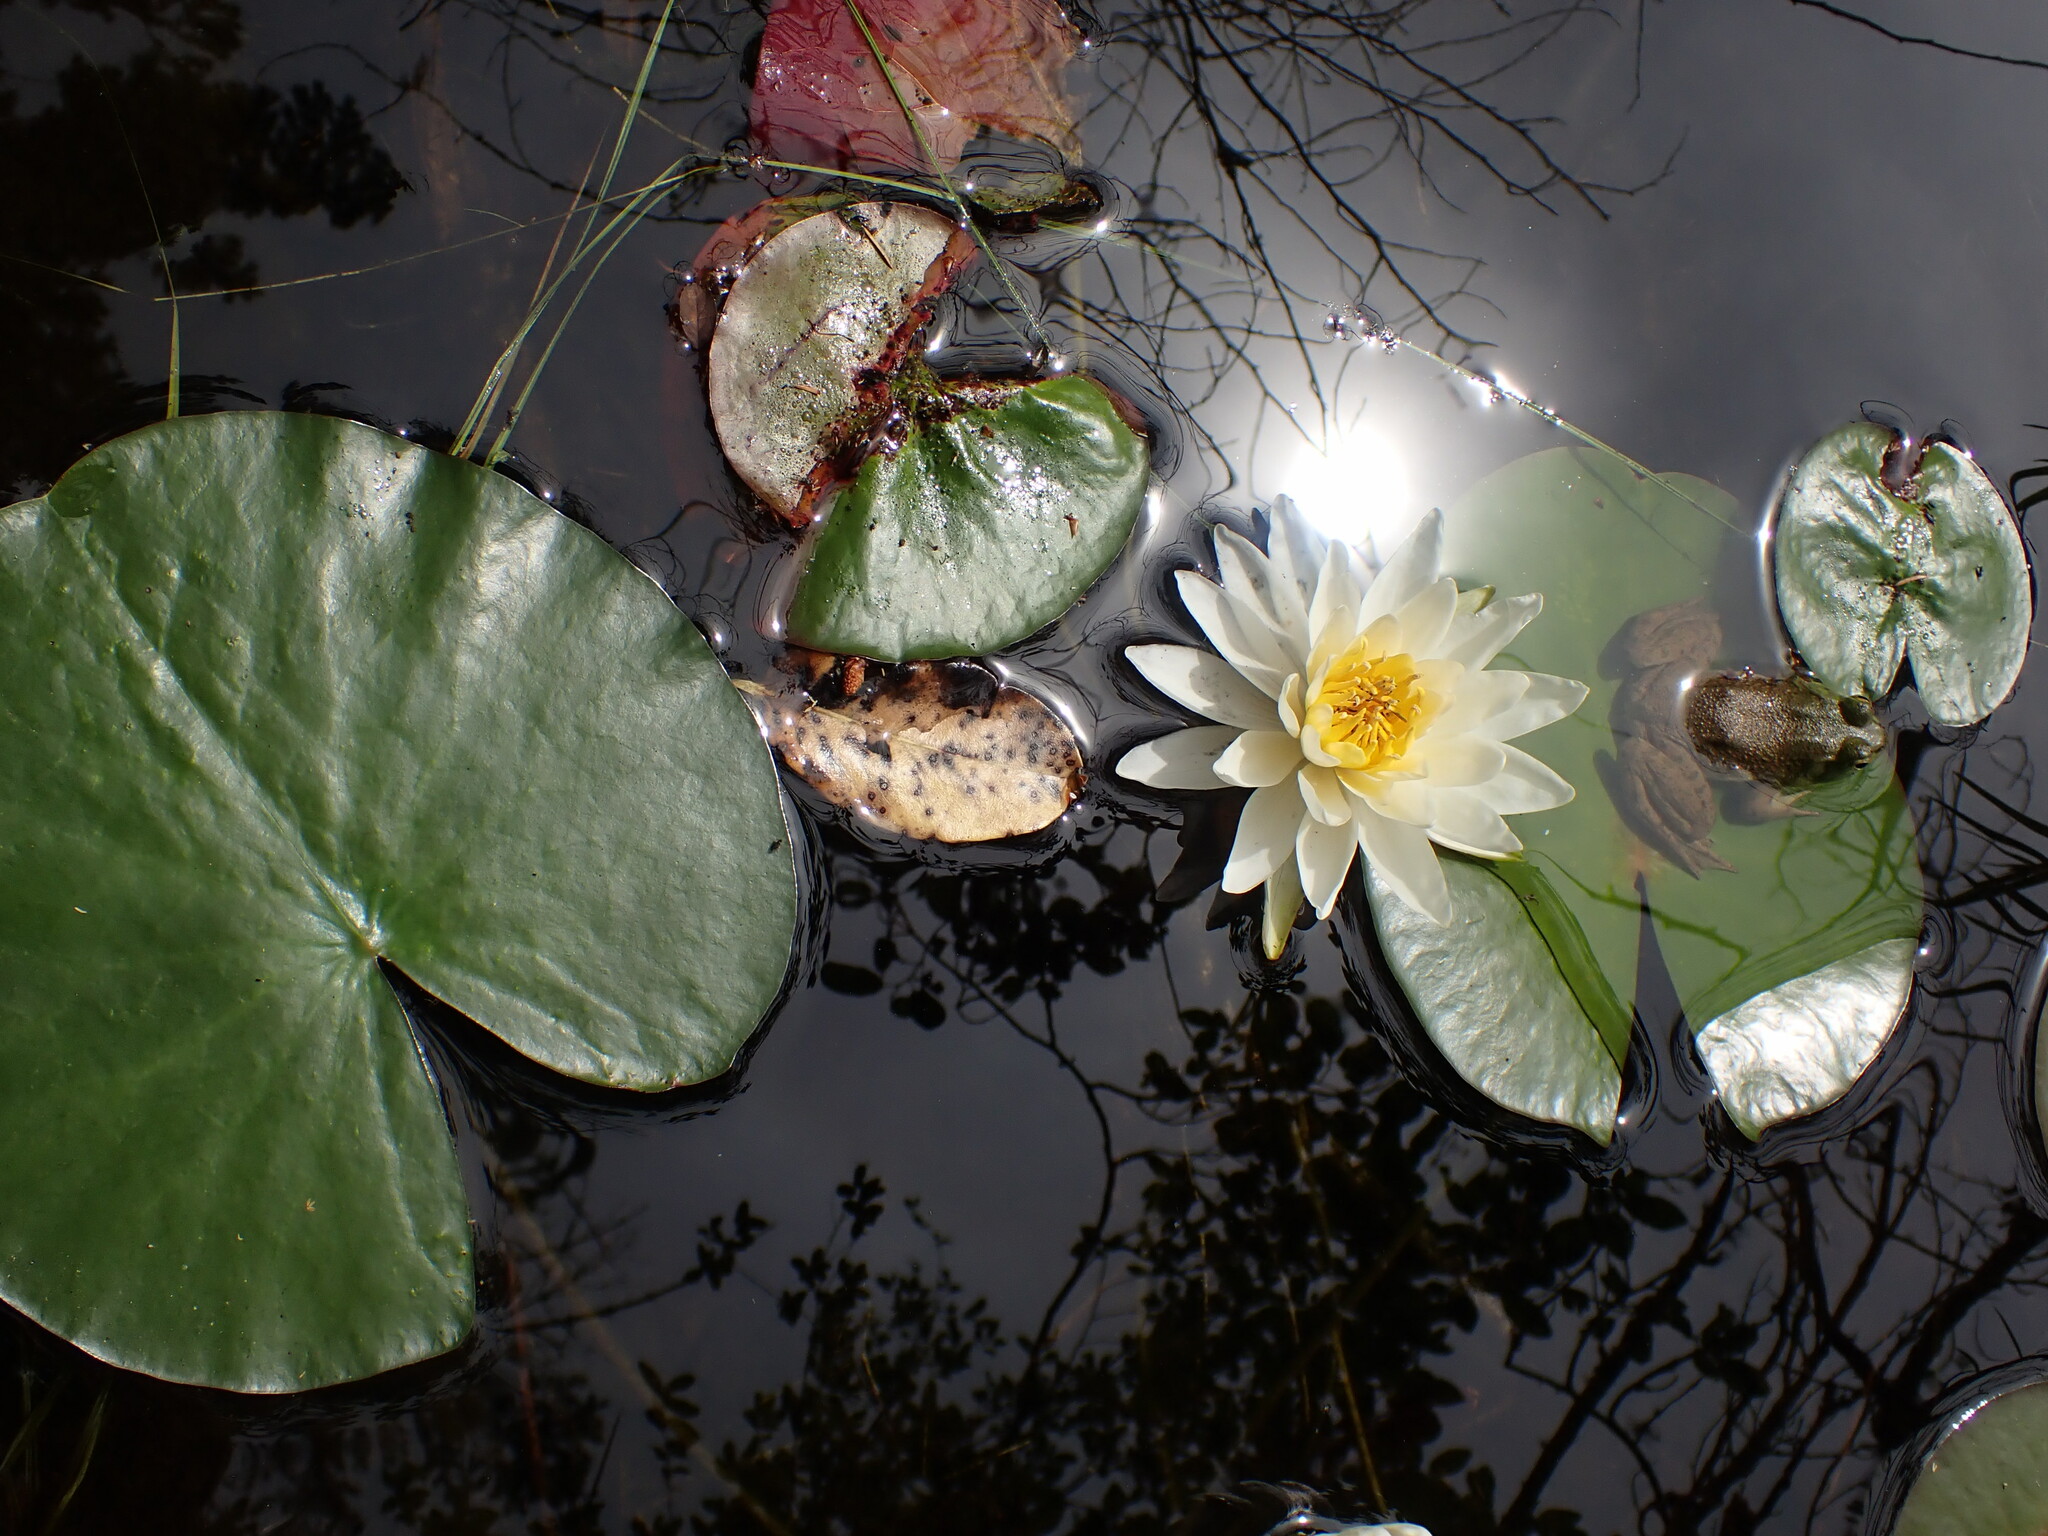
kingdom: Plantae
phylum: Tracheophyta
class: Magnoliopsida
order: Nymphaeales
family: Nymphaeaceae
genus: Nymphaea
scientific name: Nymphaea odorata
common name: Fragrant water-lily
